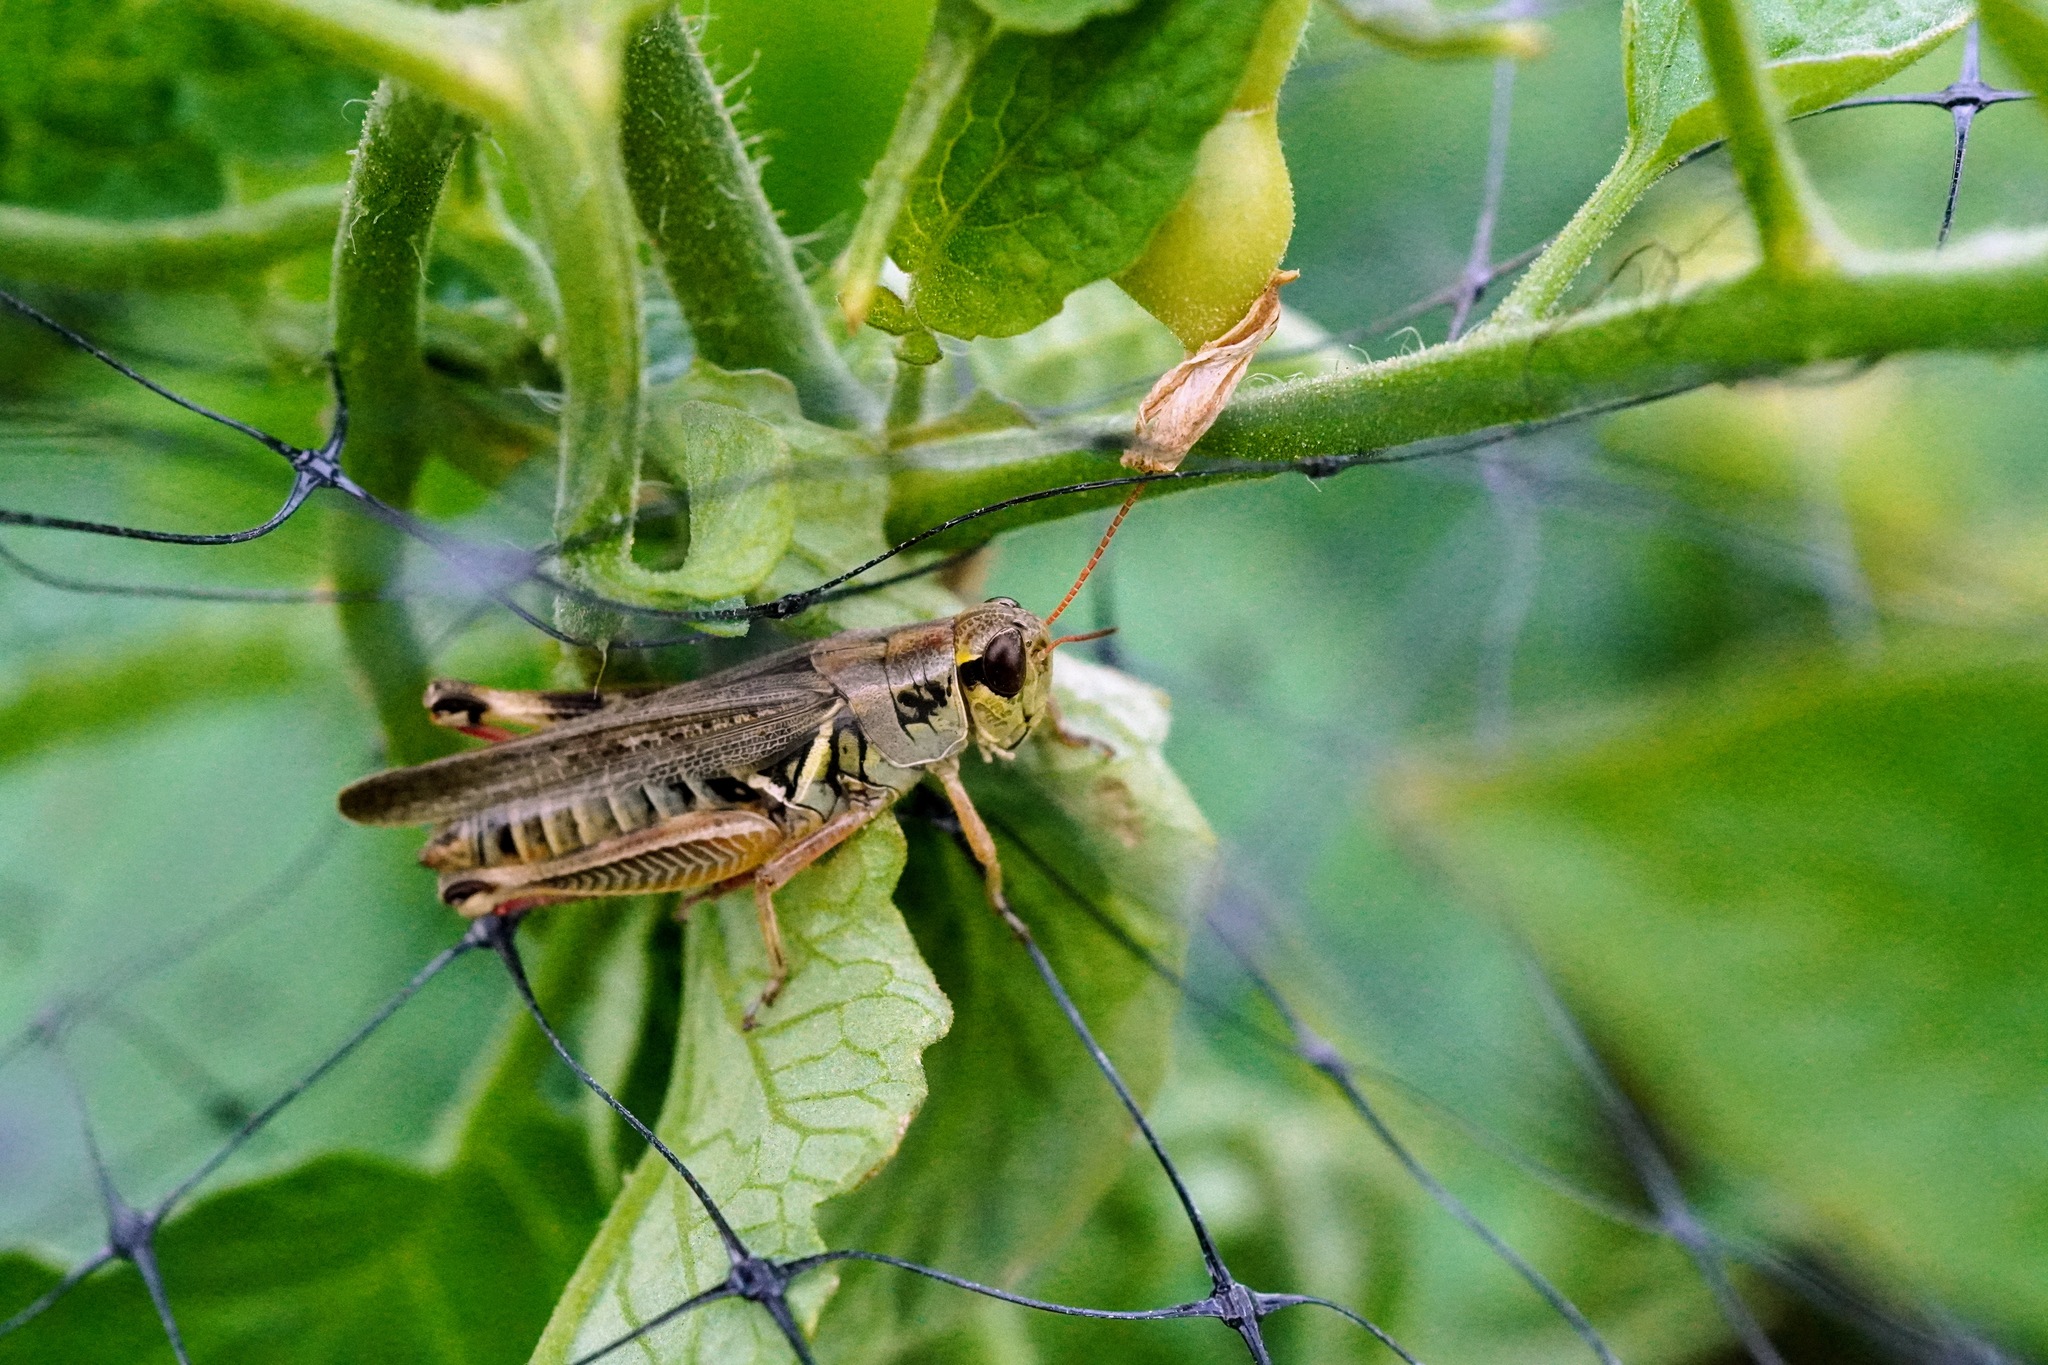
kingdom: Animalia
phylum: Arthropoda
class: Insecta
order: Orthoptera
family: Acrididae
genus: Melanoplus
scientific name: Melanoplus femurrubrum
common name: Red-legged grasshopper
